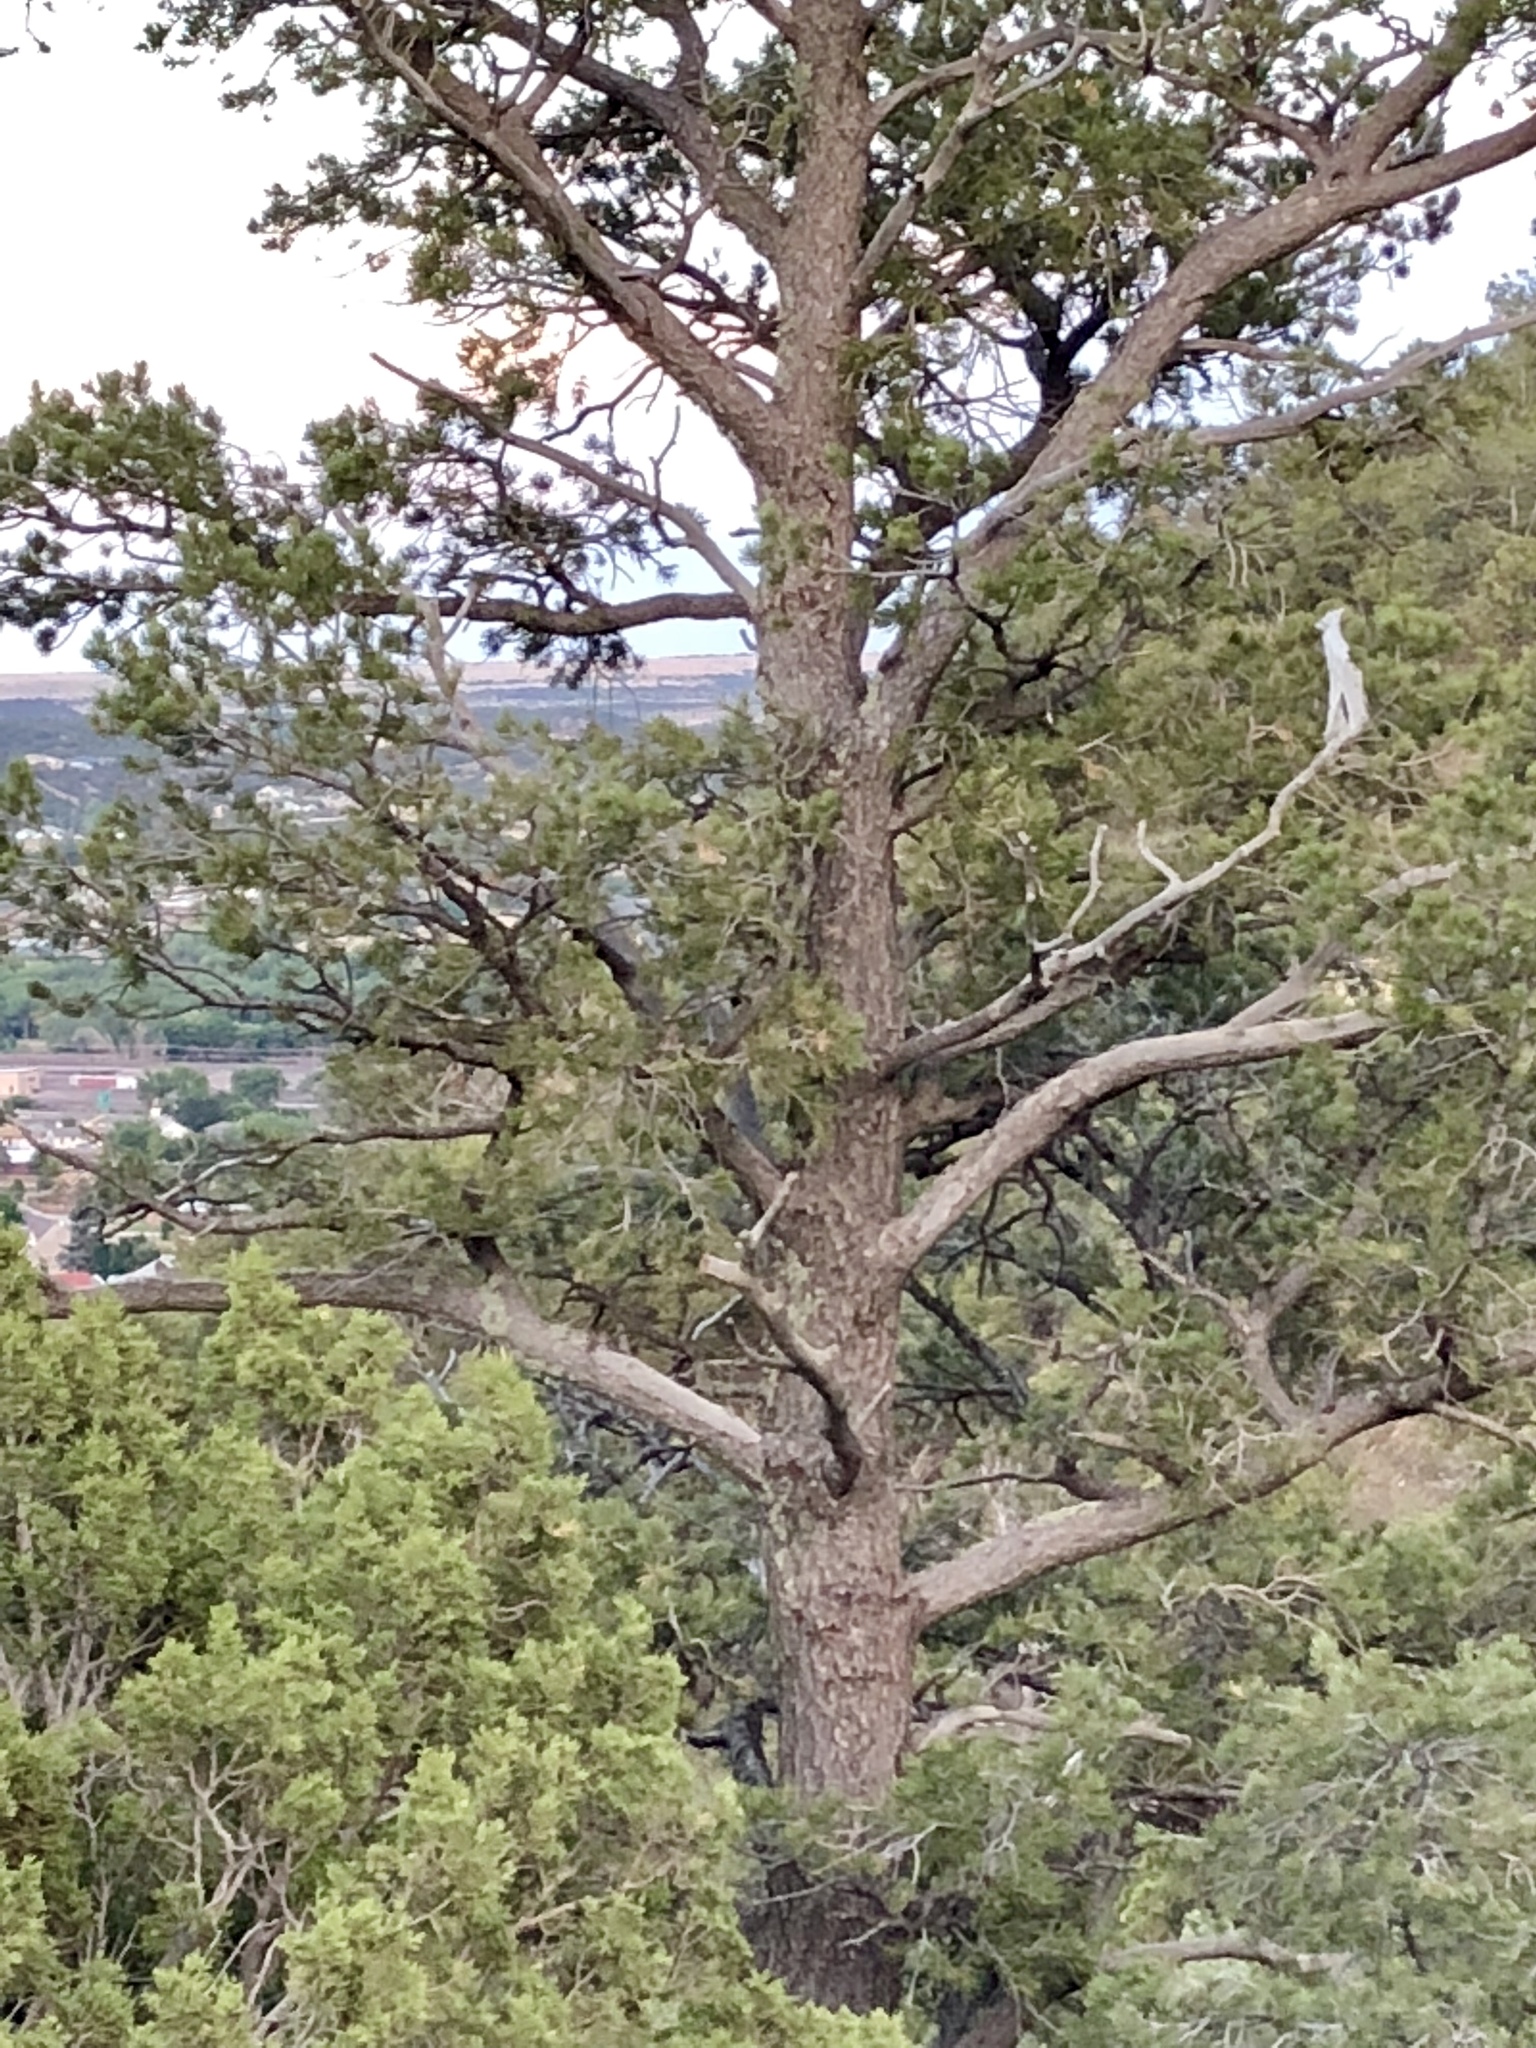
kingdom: Plantae
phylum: Tracheophyta
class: Pinopsida
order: Pinales
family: Pinaceae
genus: Pinus
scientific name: Pinus edulis
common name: Colorado pinyon
